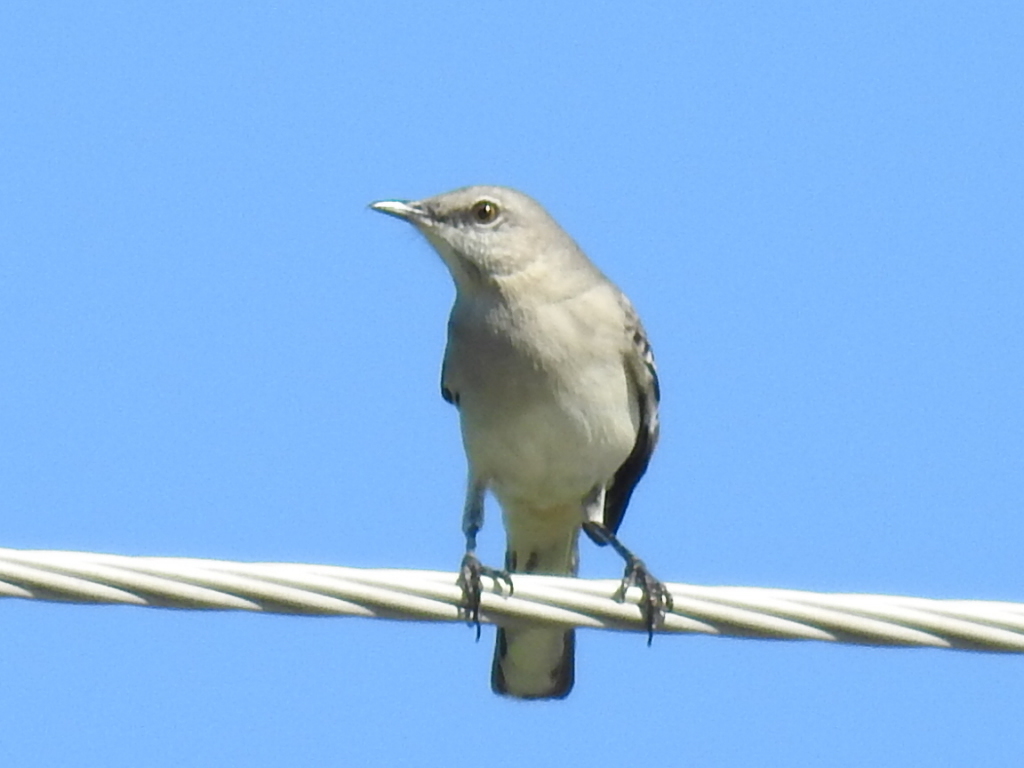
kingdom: Animalia
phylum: Chordata
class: Aves
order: Passeriformes
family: Mimidae
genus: Mimus
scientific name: Mimus polyglottos
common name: Northern mockingbird
